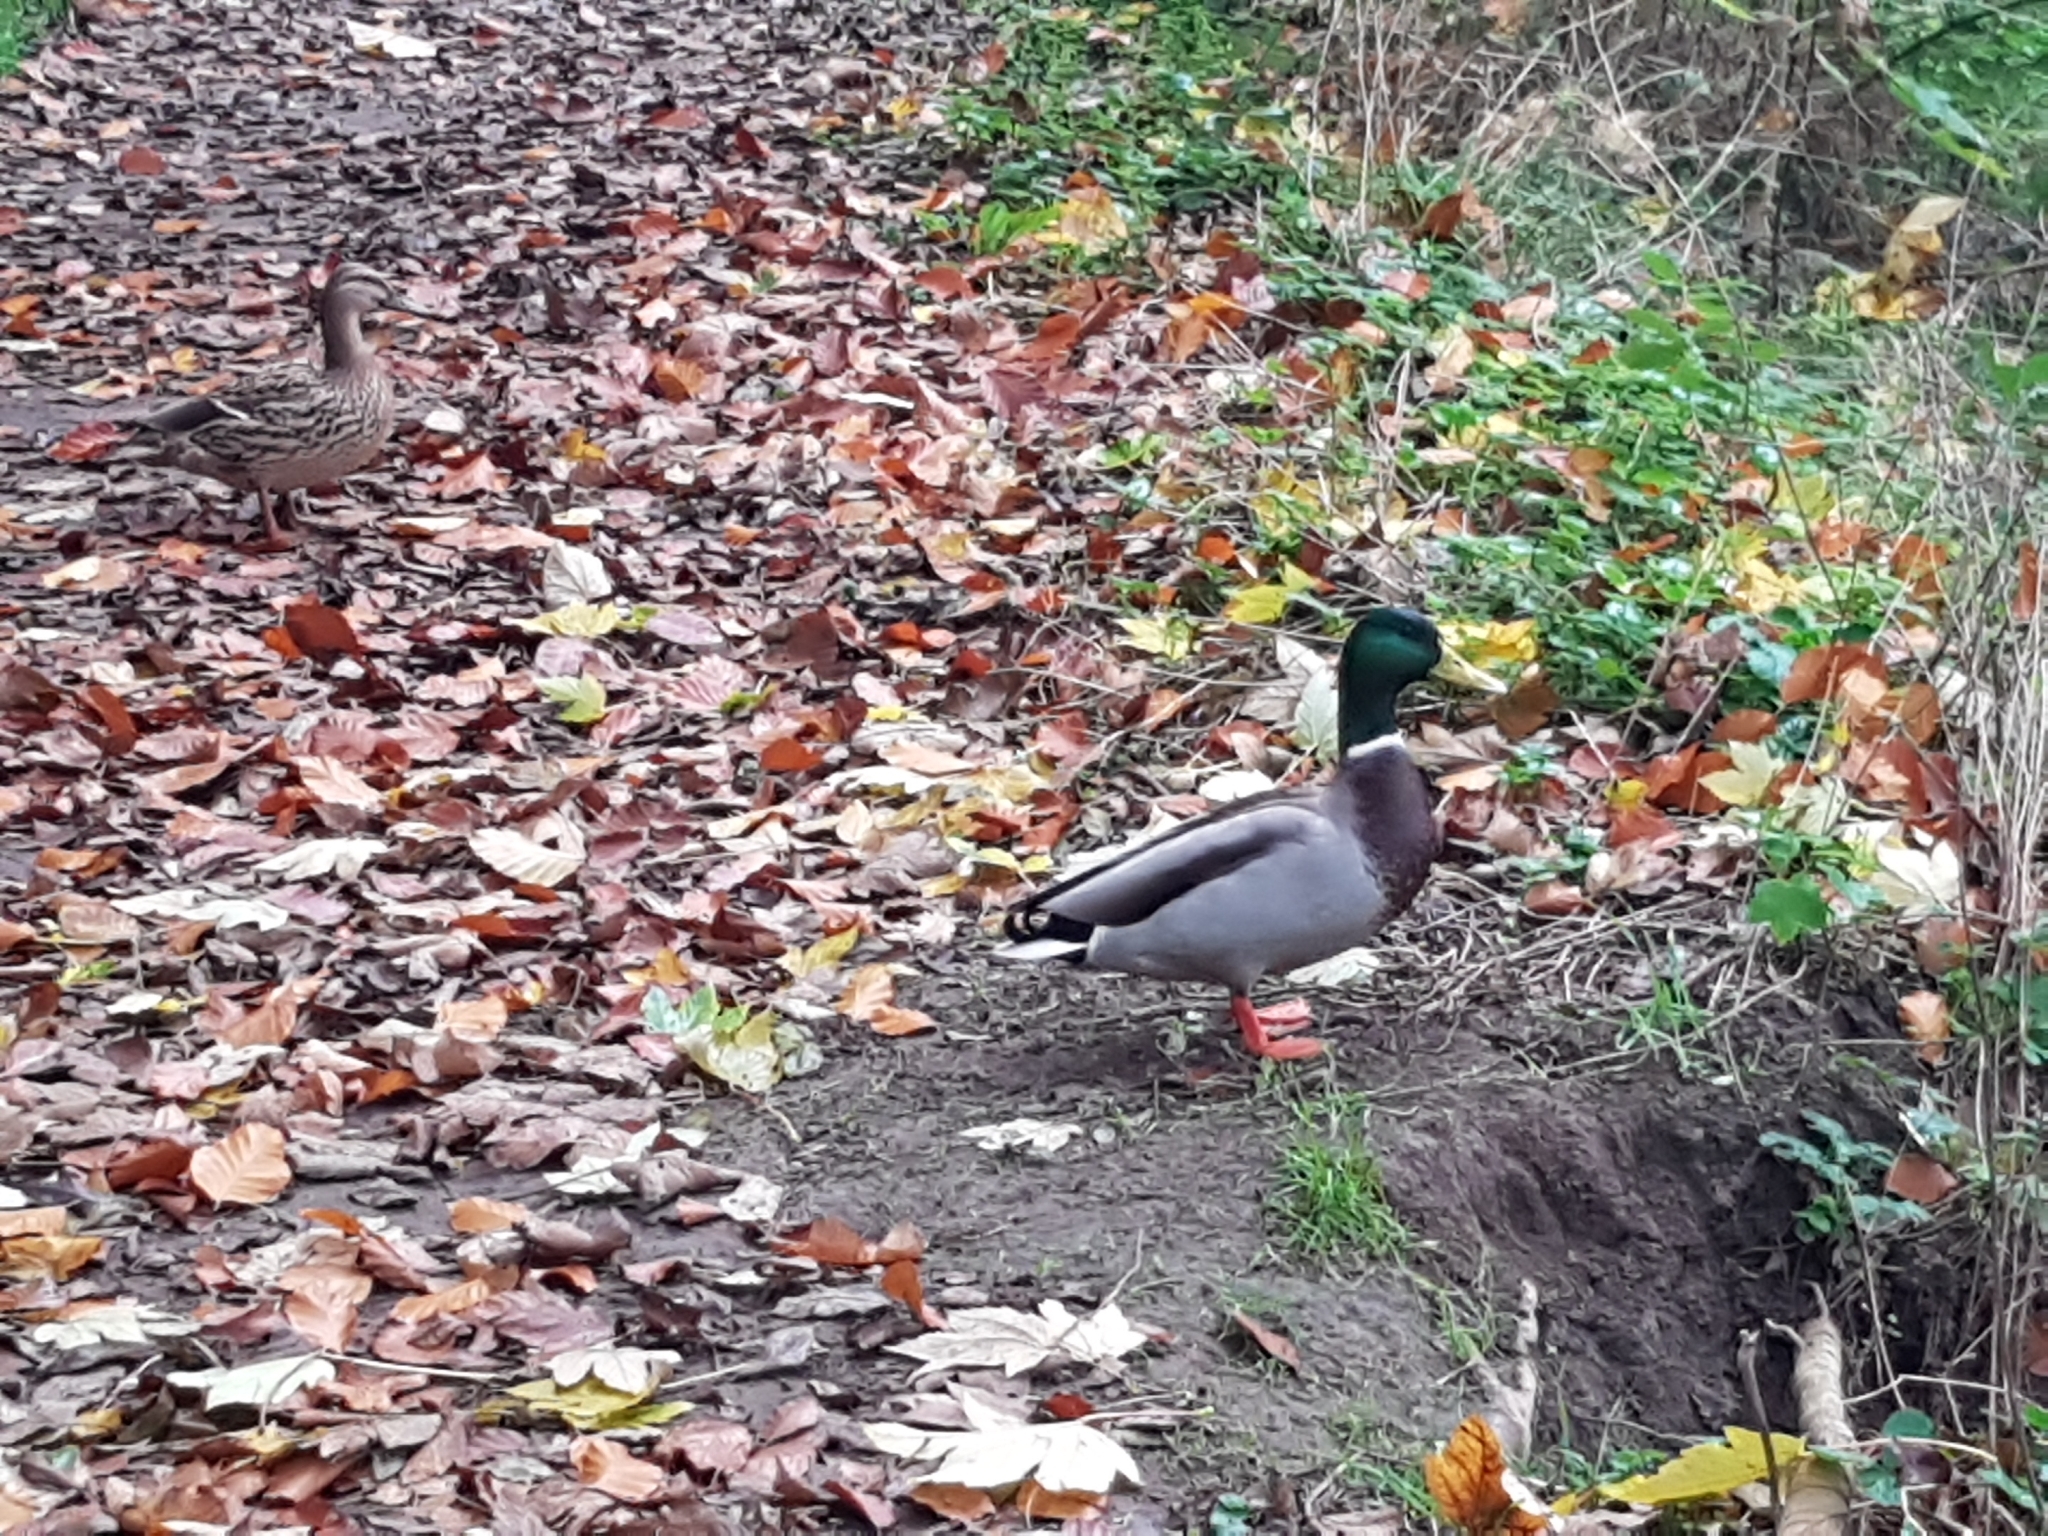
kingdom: Animalia
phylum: Chordata
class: Aves
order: Anseriformes
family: Anatidae
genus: Anas
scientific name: Anas platyrhynchos
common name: Mallard
